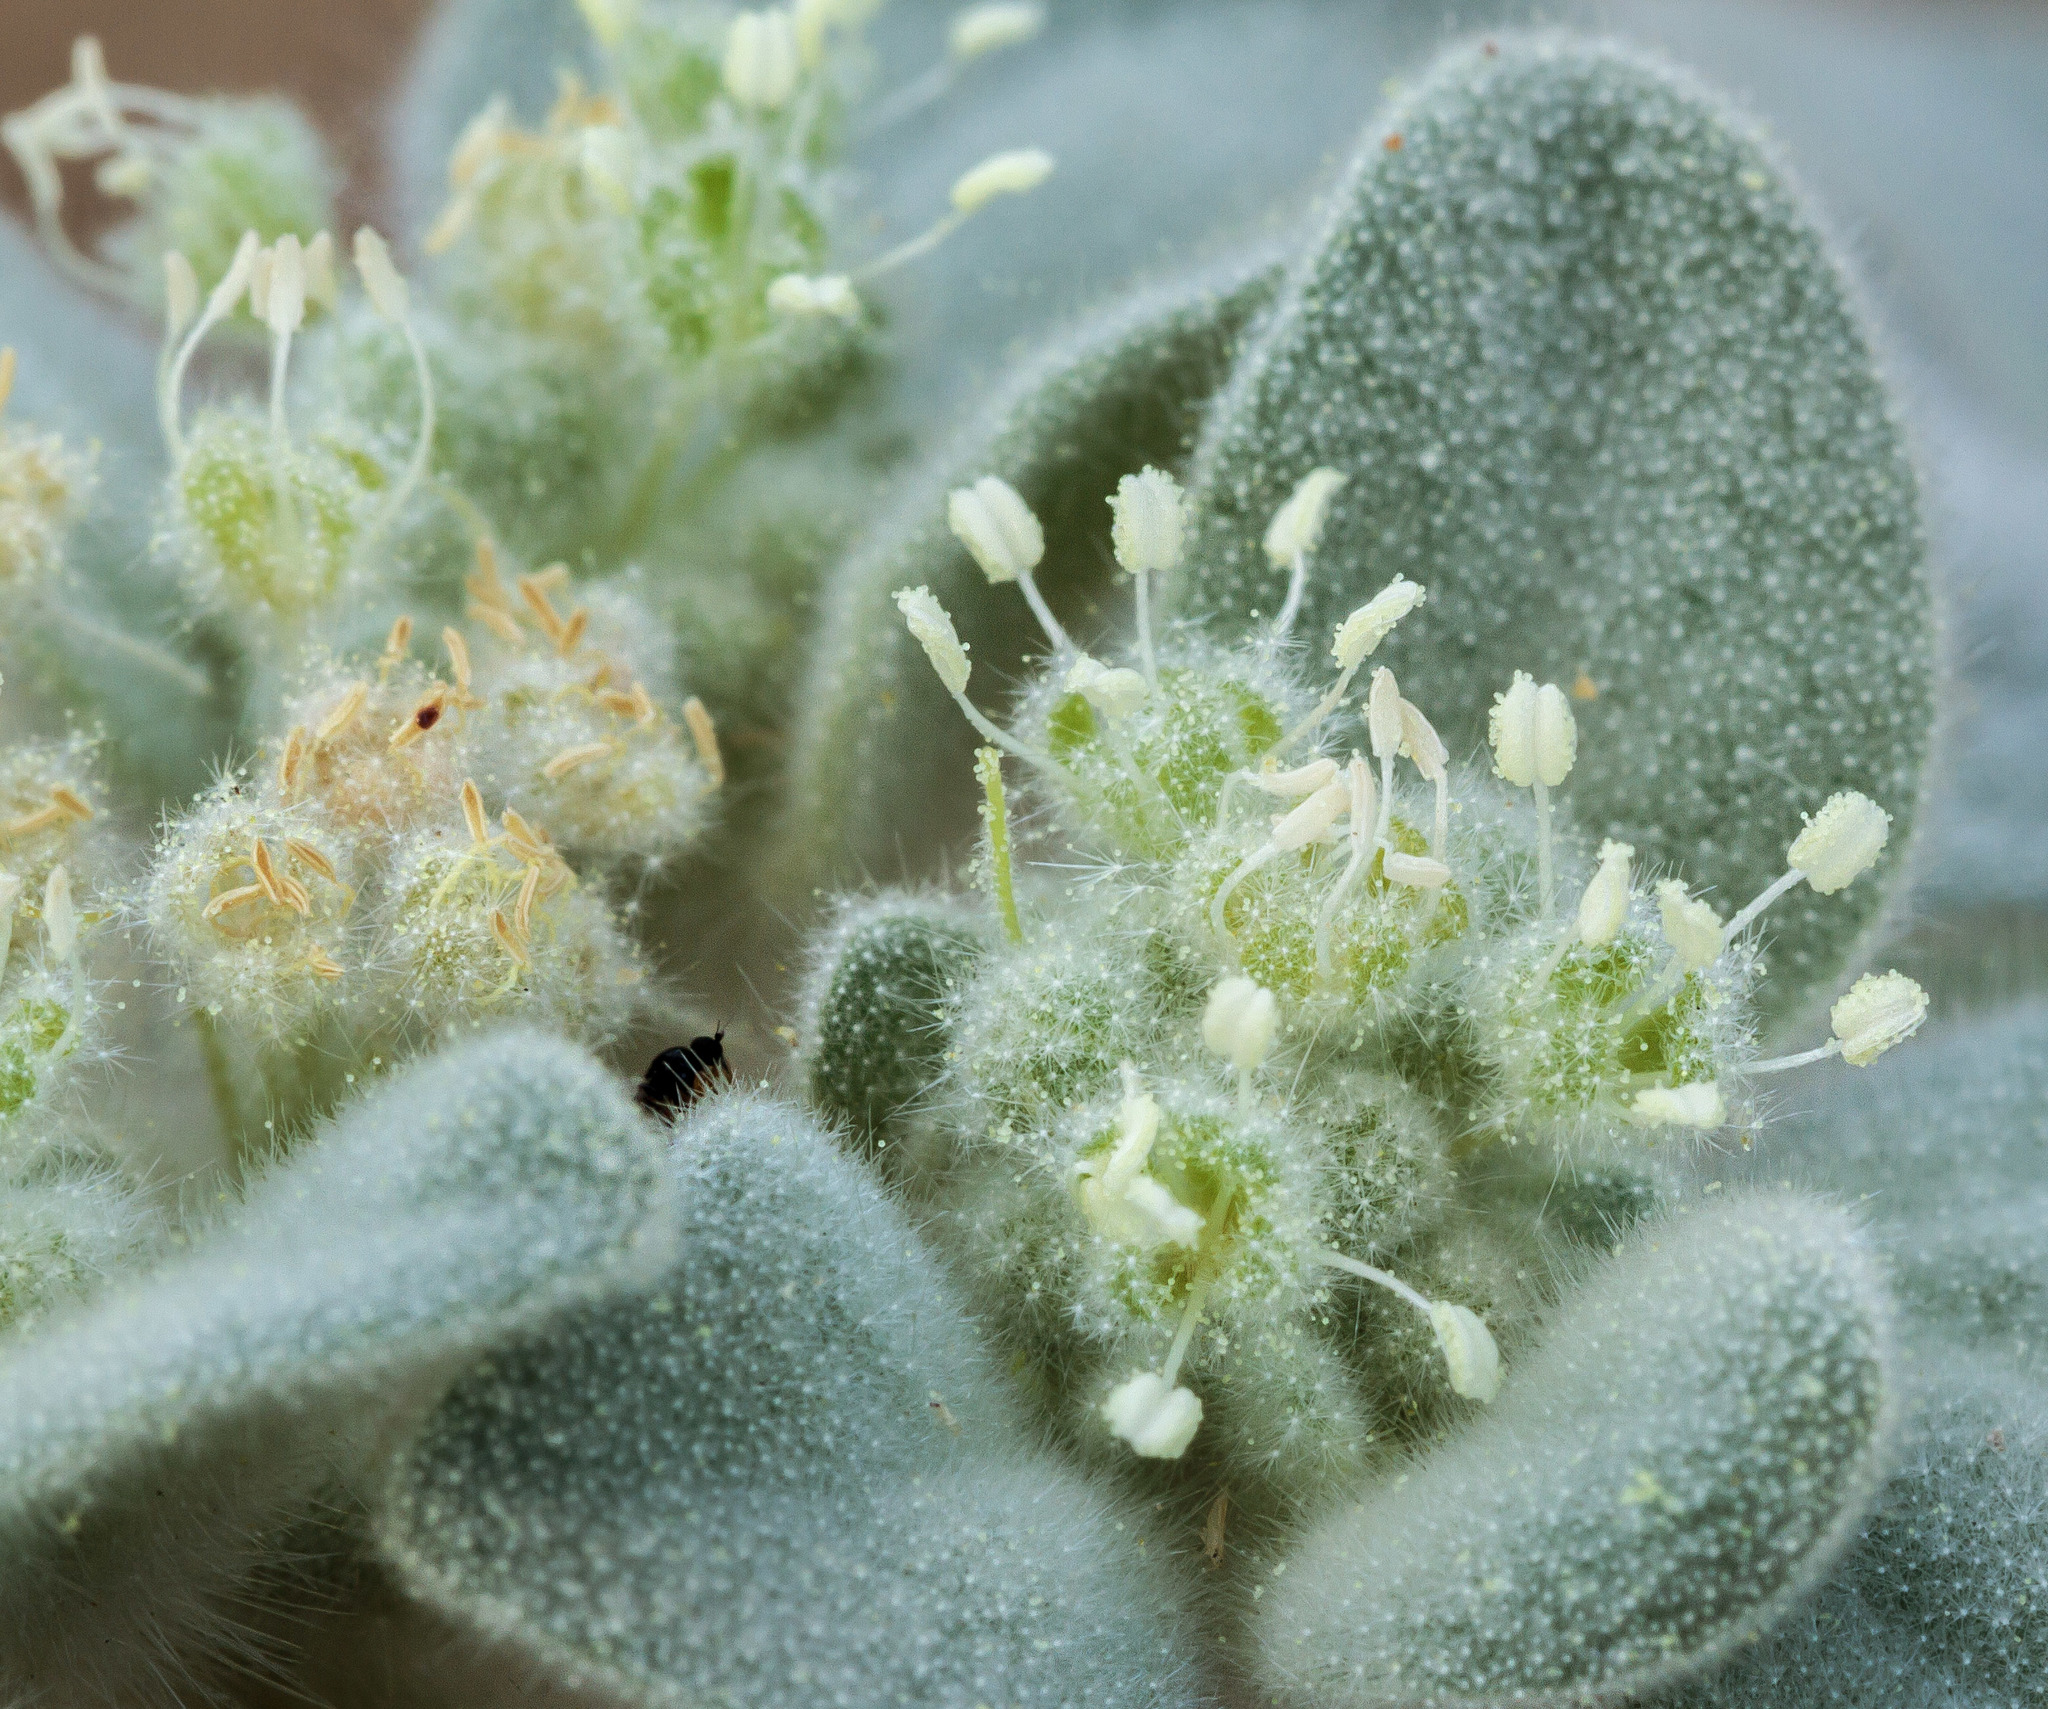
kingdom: Plantae
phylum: Tracheophyta
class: Magnoliopsida
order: Malpighiales
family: Euphorbiaceae
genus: Croton
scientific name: Croton setiger
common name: Dove weed
